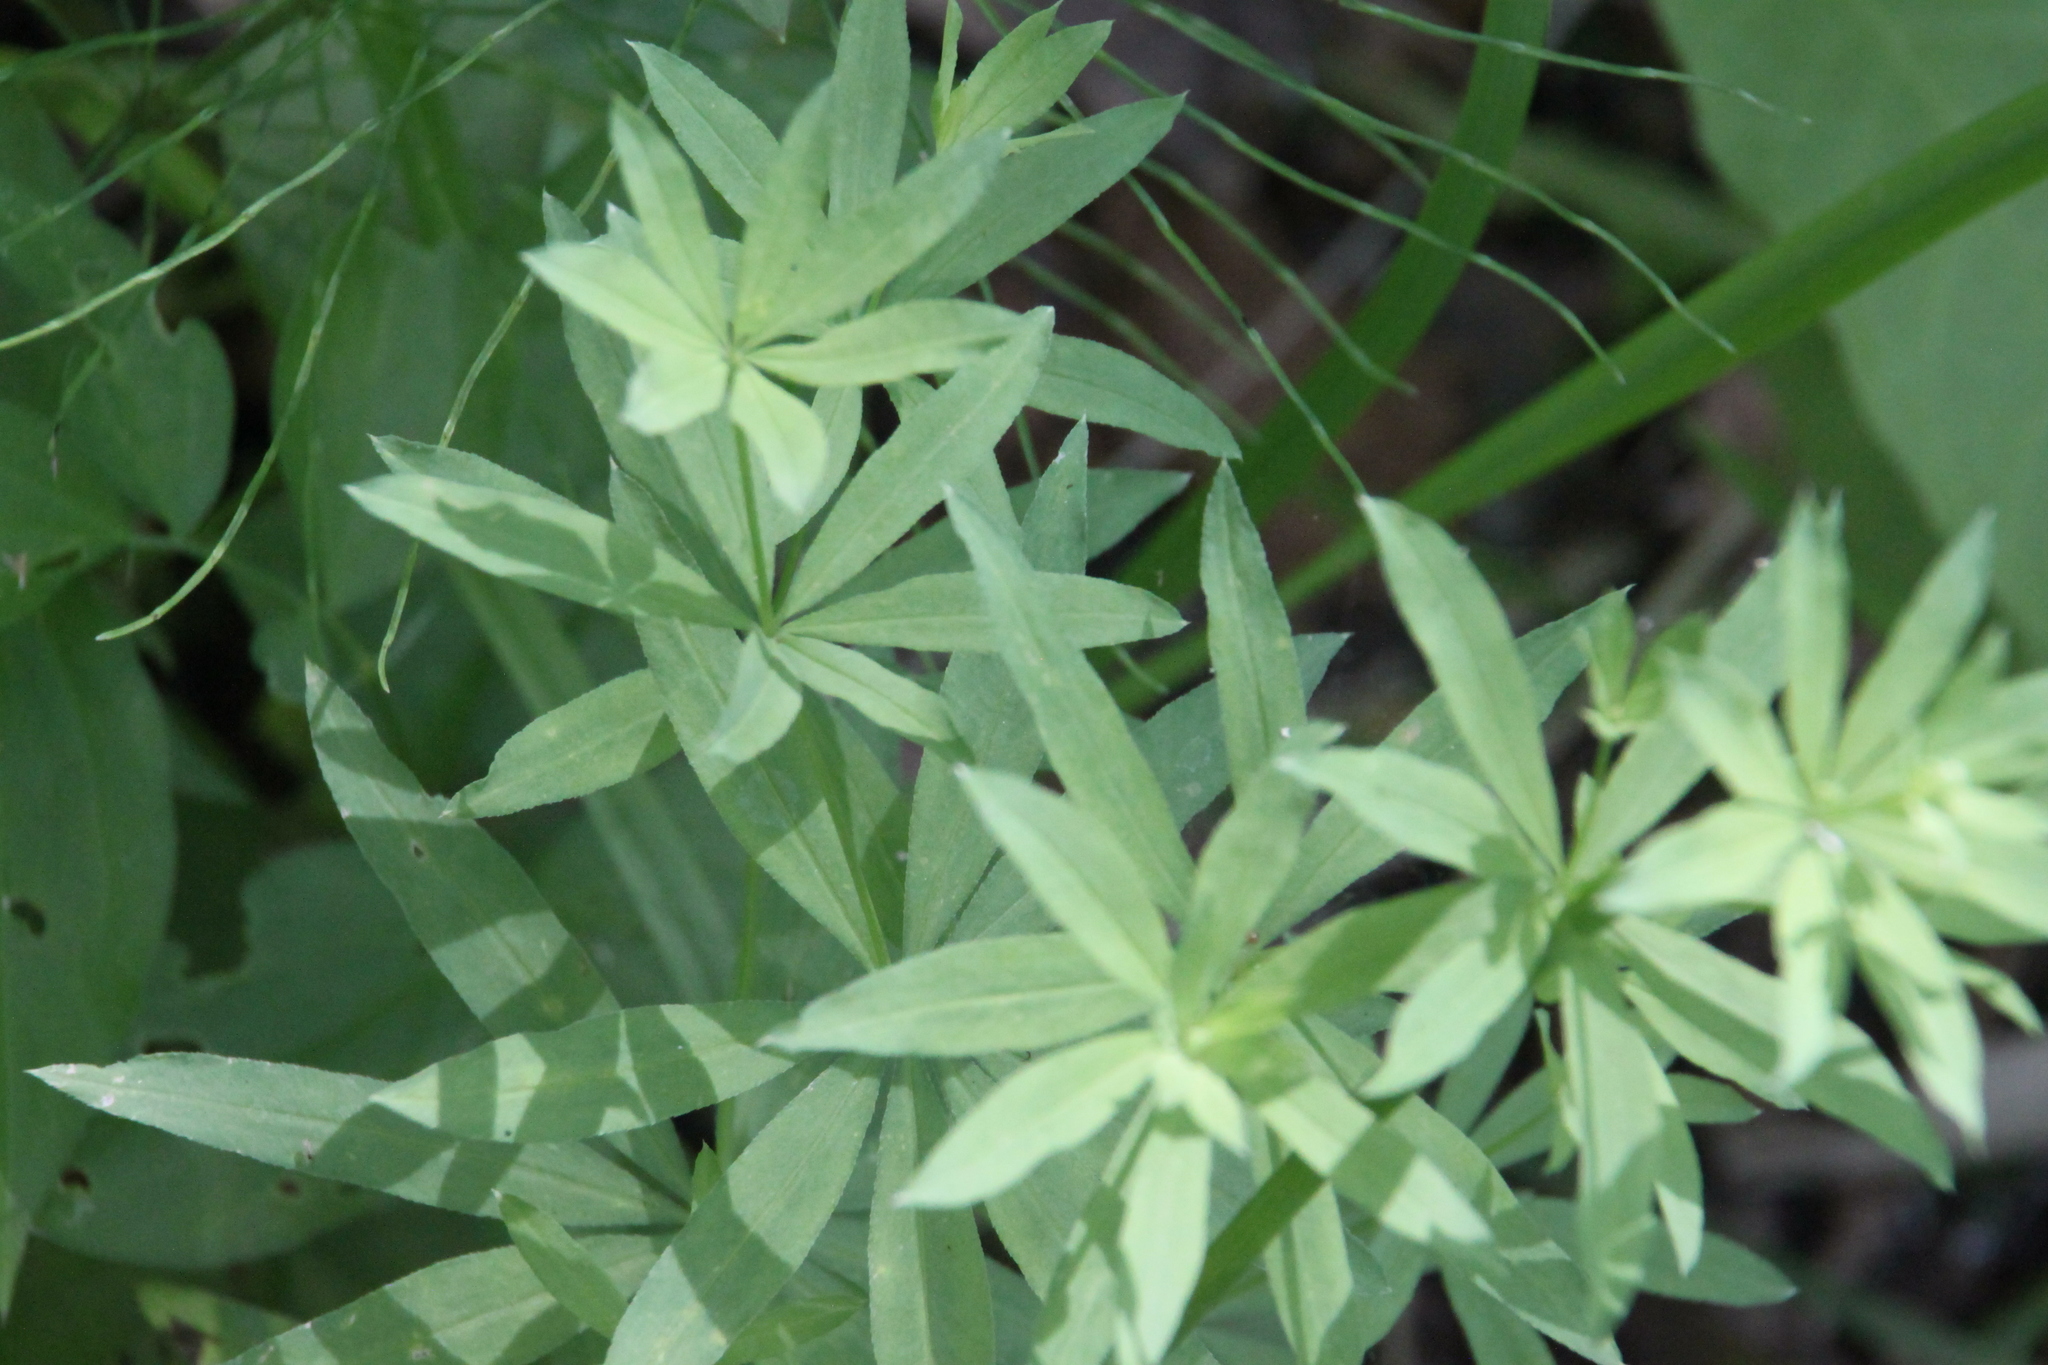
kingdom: Plantae
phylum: Tracheophyta
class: Magnoliopsida
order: Gentianales
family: Rubiaceae
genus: Galium
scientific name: Galium intermedium
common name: Bedstraw
